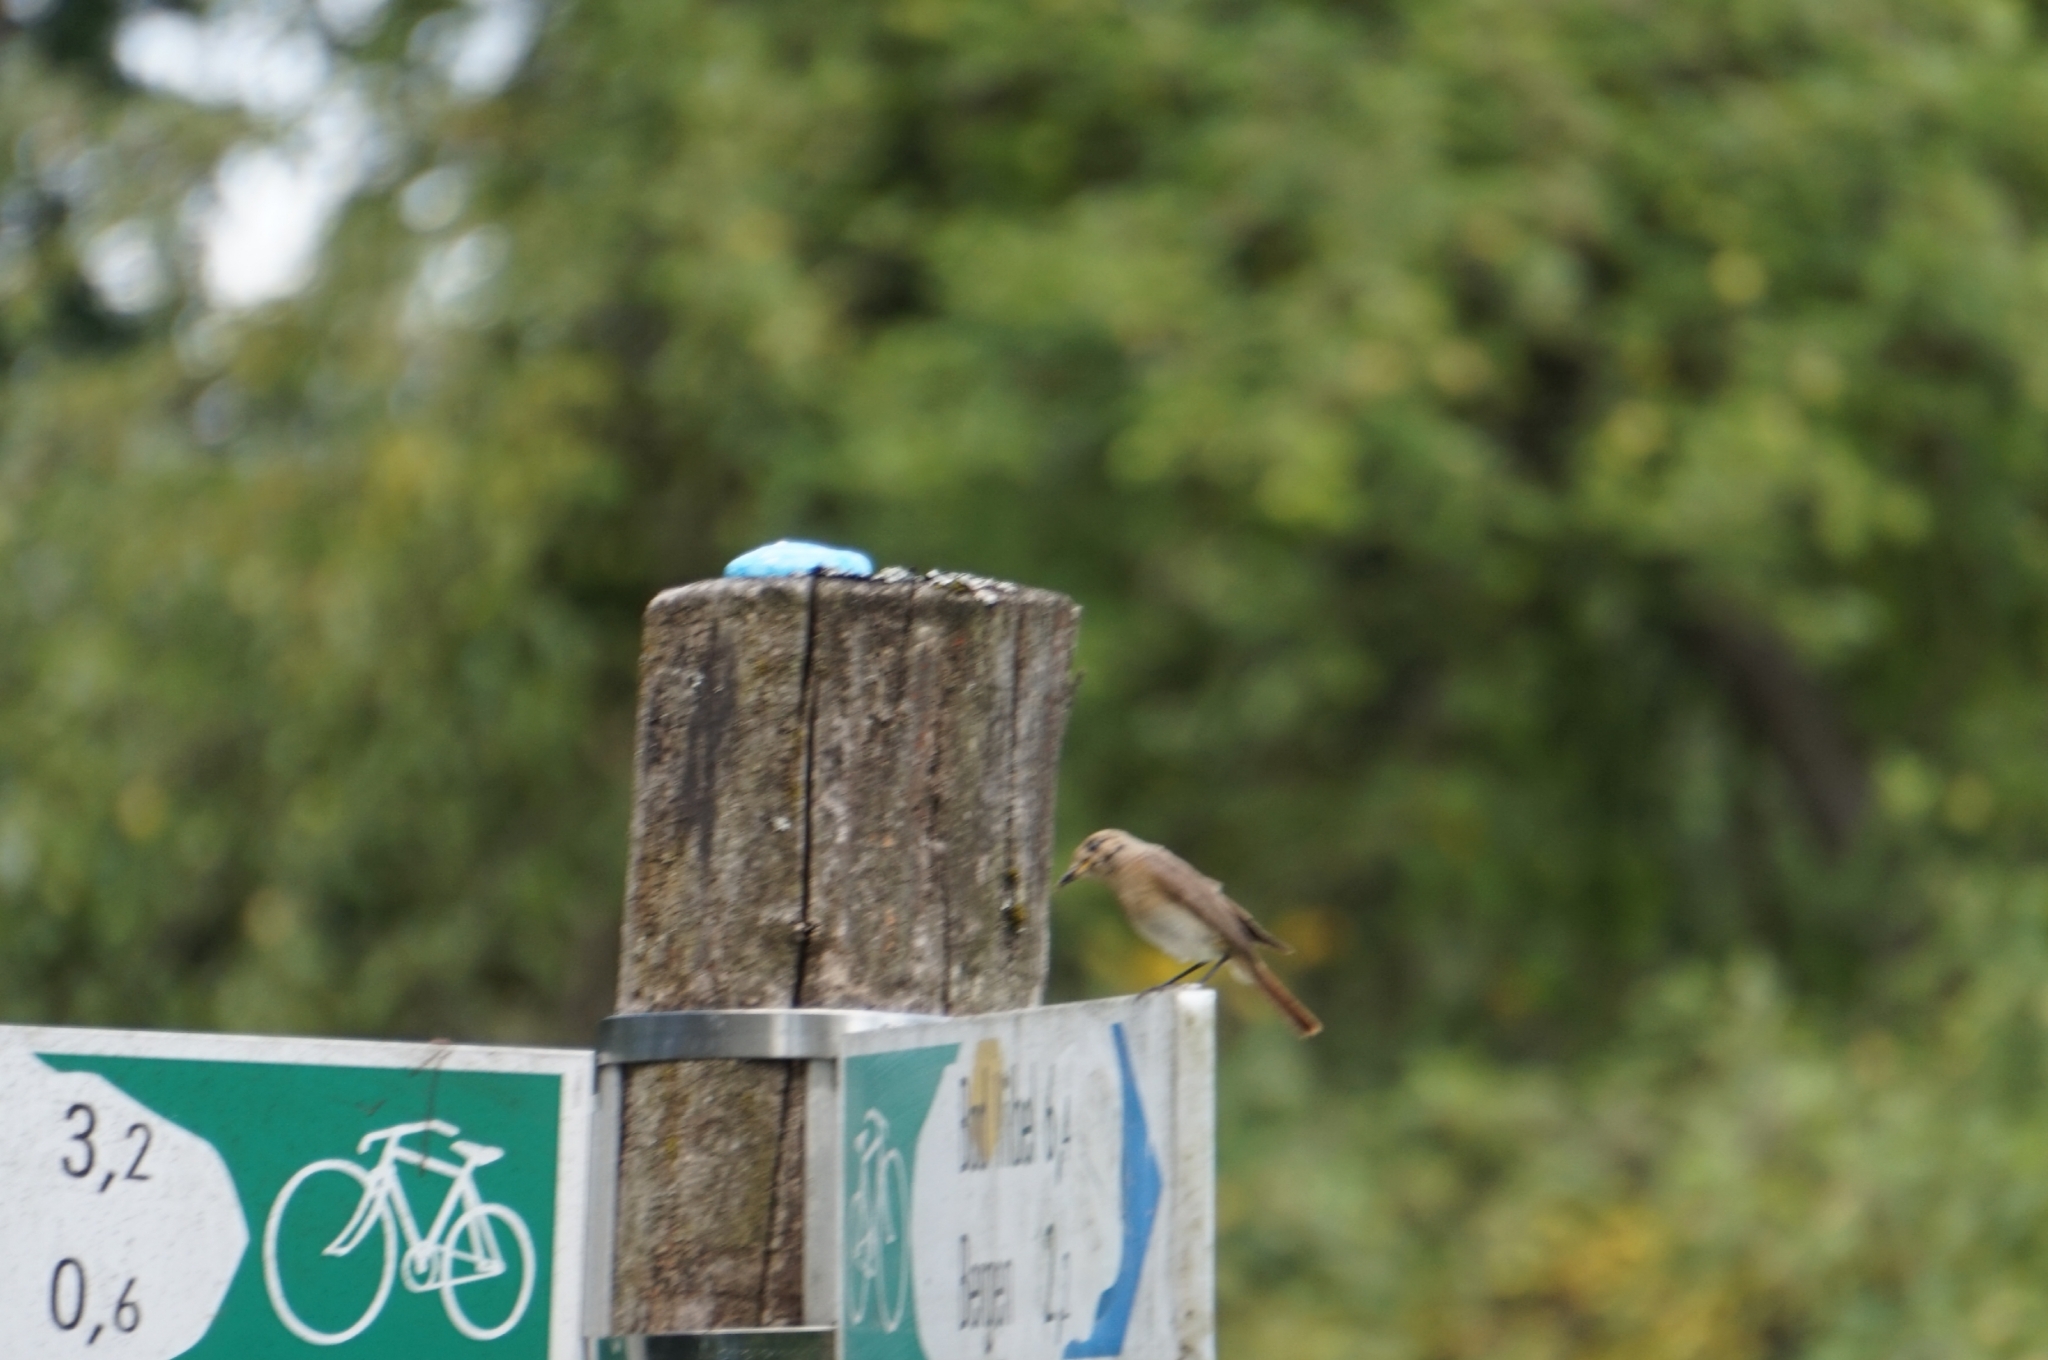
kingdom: Animalia
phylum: Chordata
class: Aves
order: Passeriformes
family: Muscicapidae
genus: Phoenicurus
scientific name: Phoenicurus phoenicurus
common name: Common redstart
